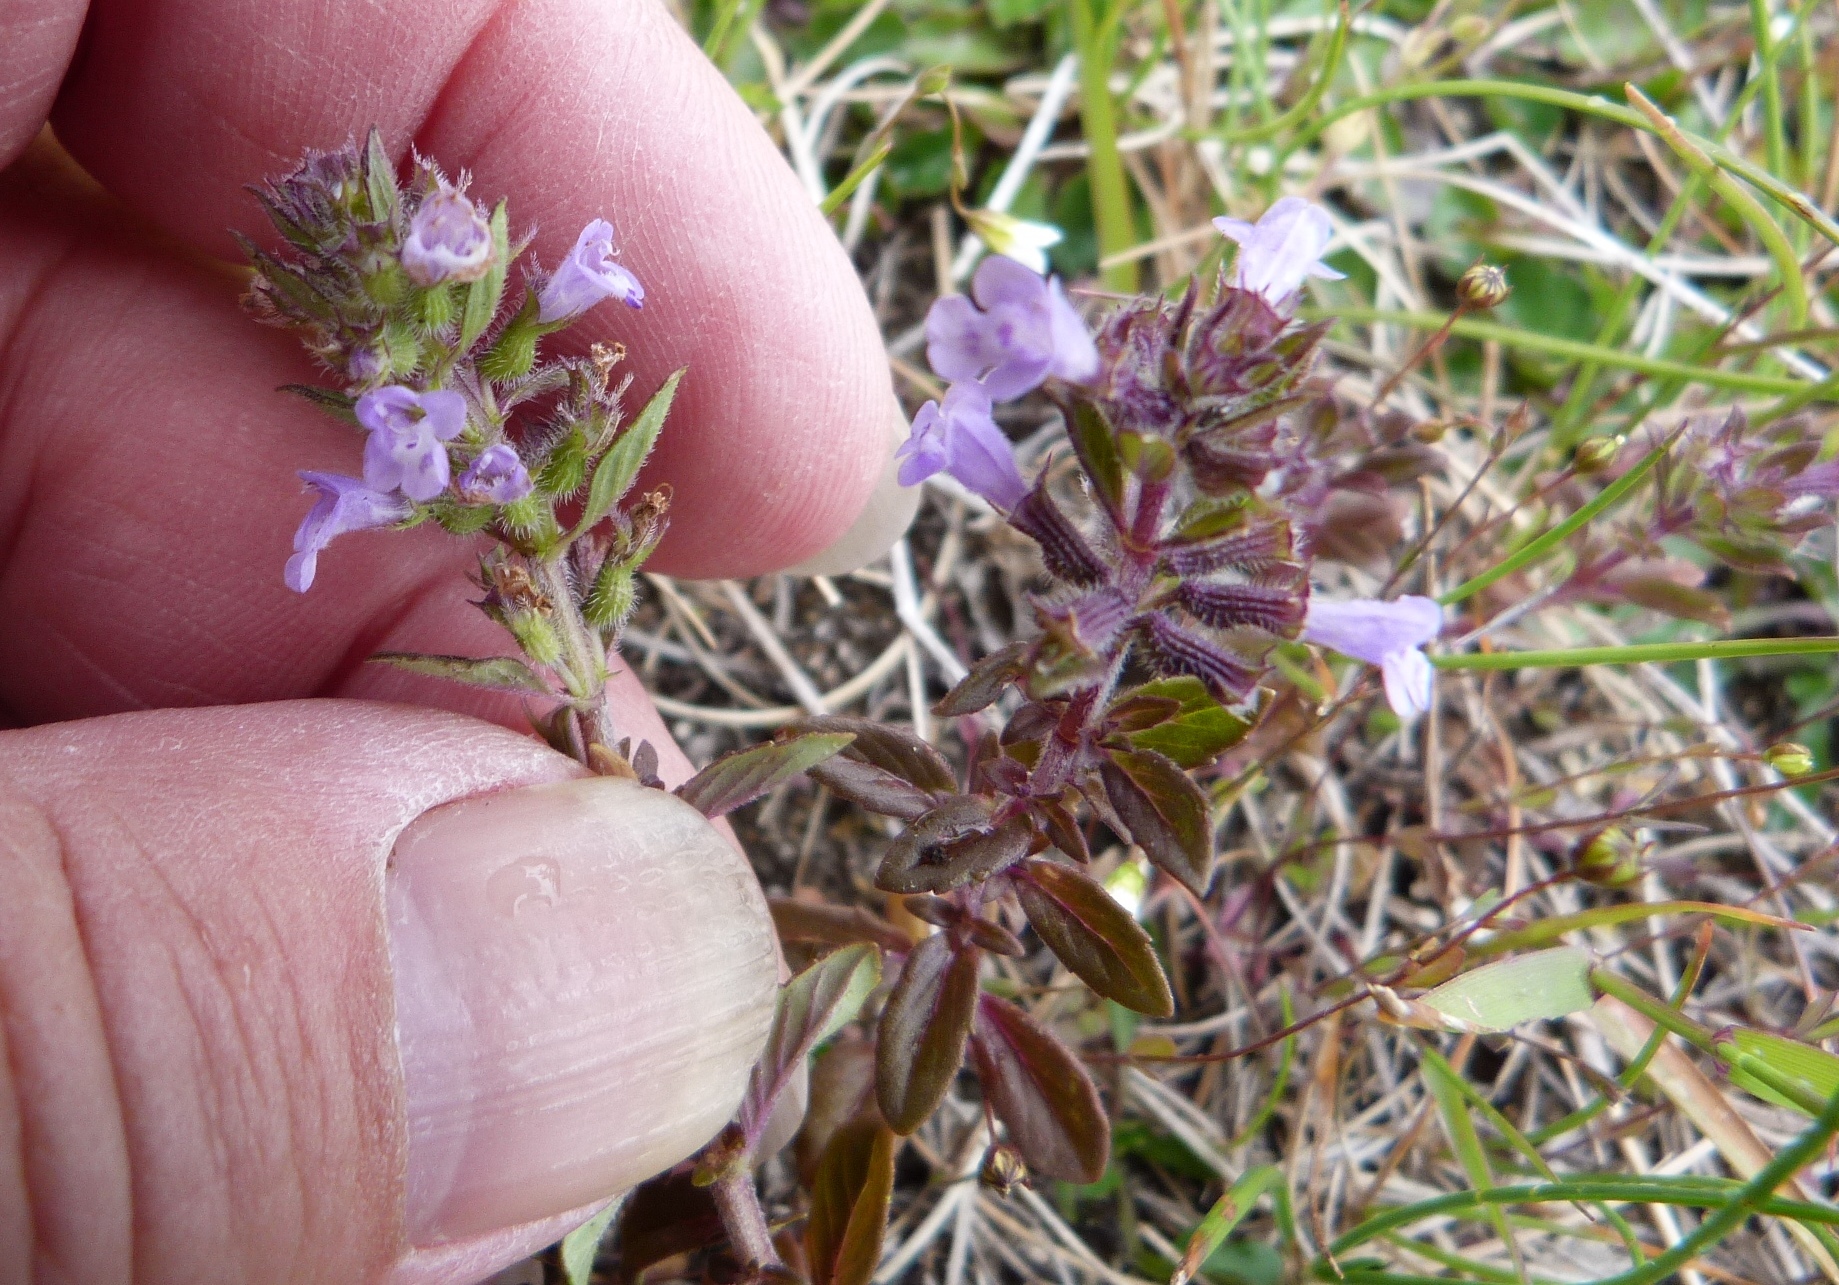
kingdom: Plantae
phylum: Tracheophyta
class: Magnoliopsida
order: Lamiales
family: Lamiaceae
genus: Clinopodium
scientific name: Clinopodium acinos
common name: Basil thyme
